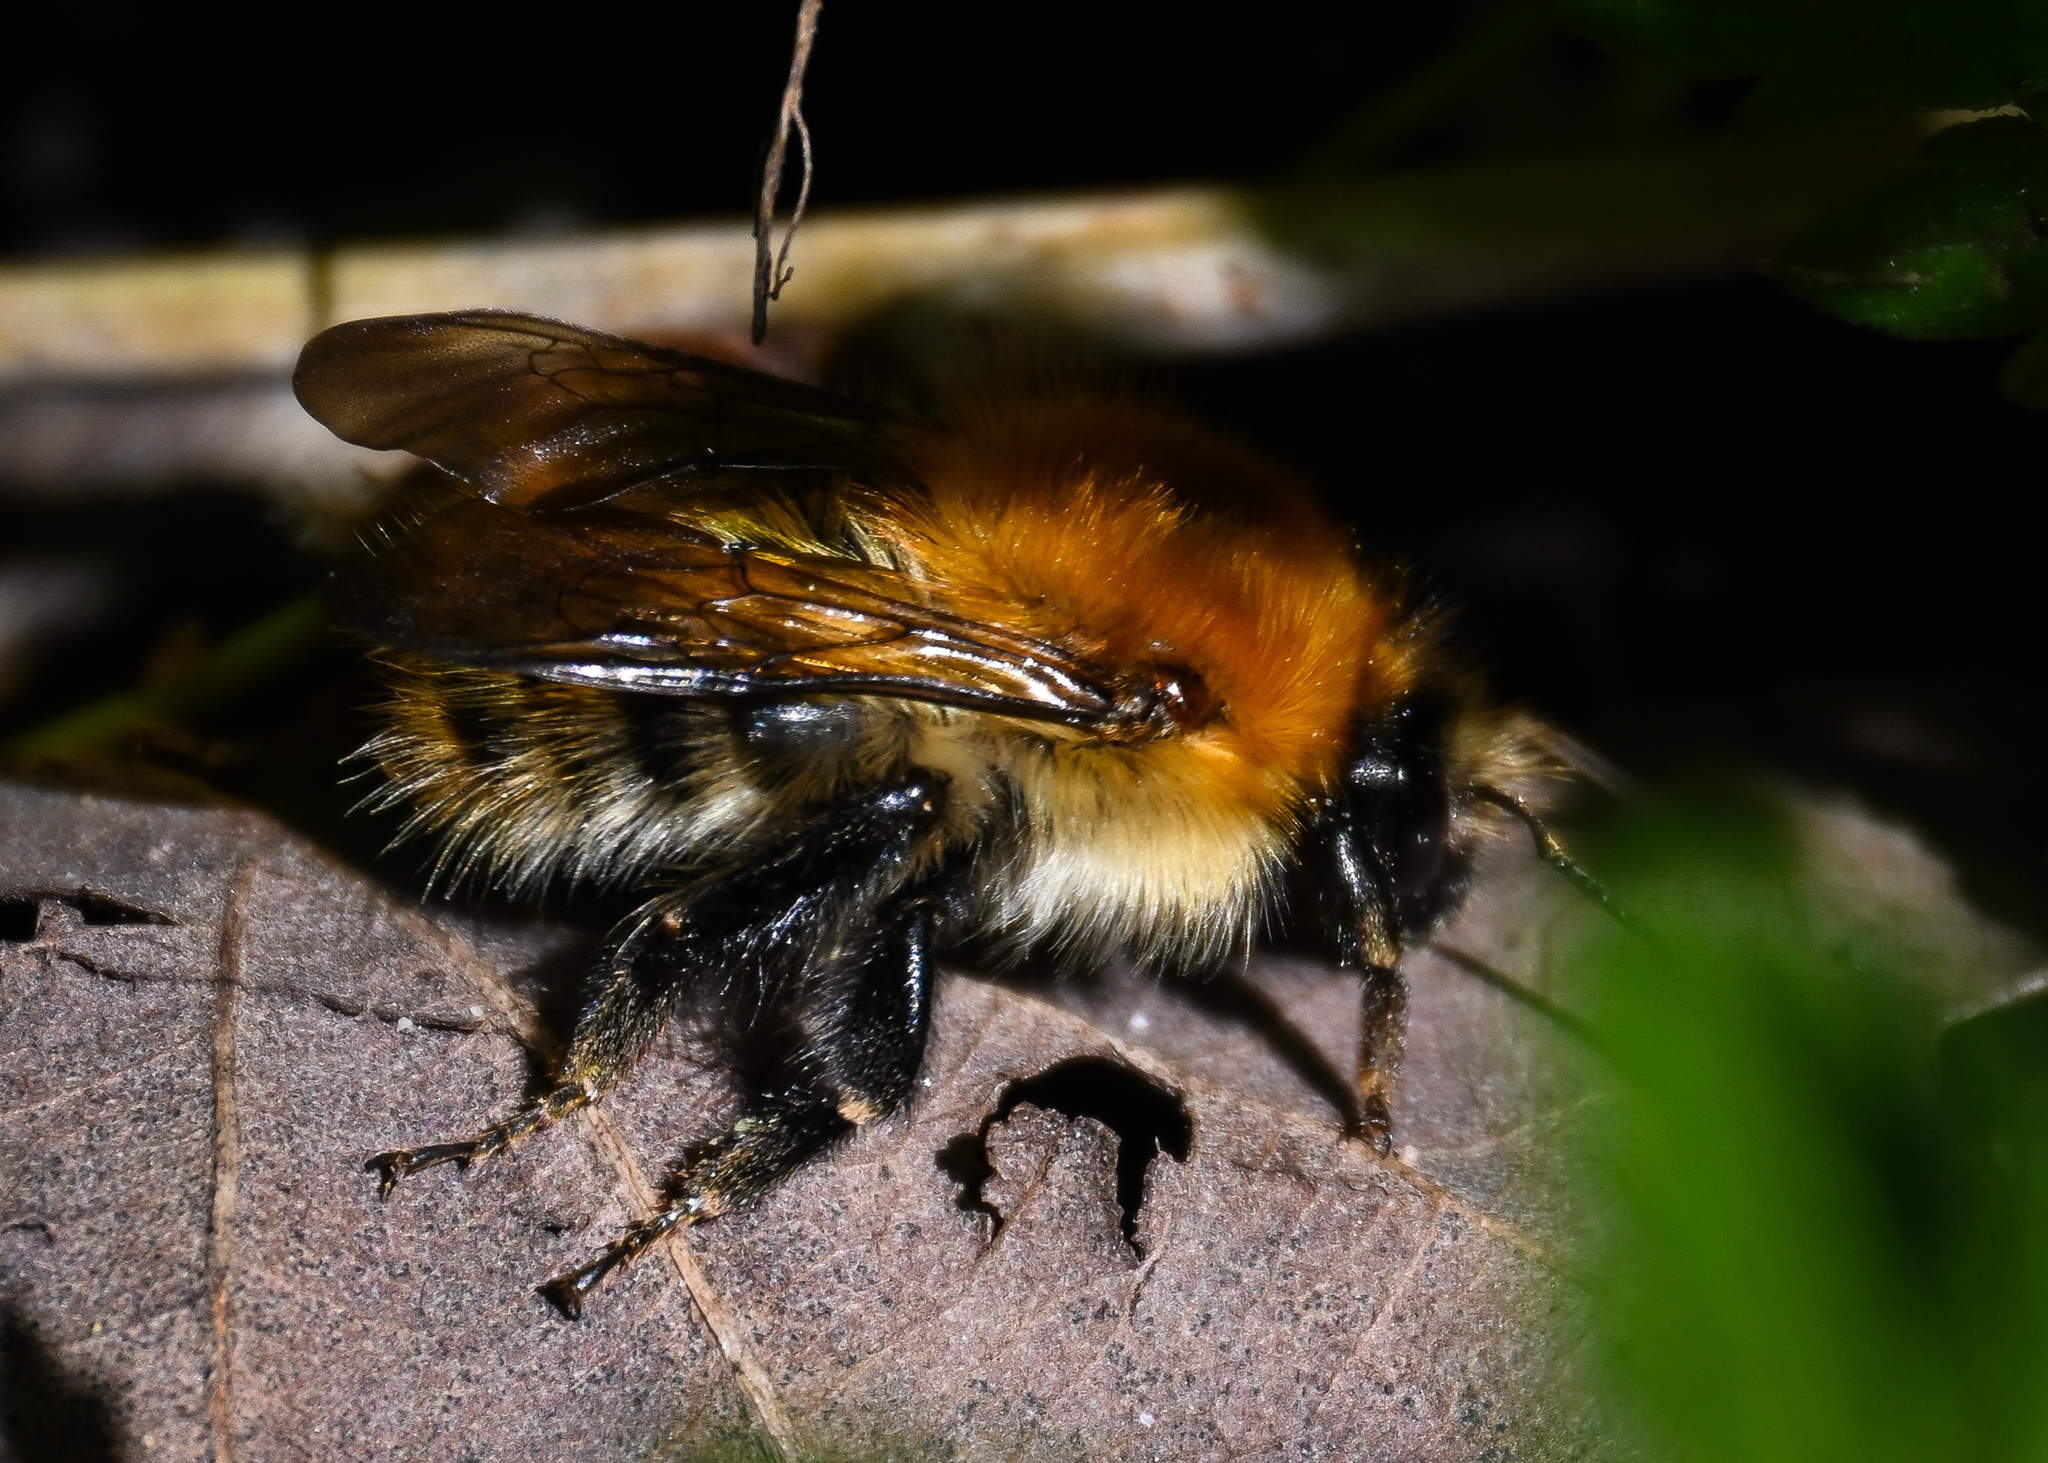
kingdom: Animalia
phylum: Arthropoda
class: Insecta
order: Hymenoptera
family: Apidae
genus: Bombus
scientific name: Bombus pascuorum
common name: Common carder bee
